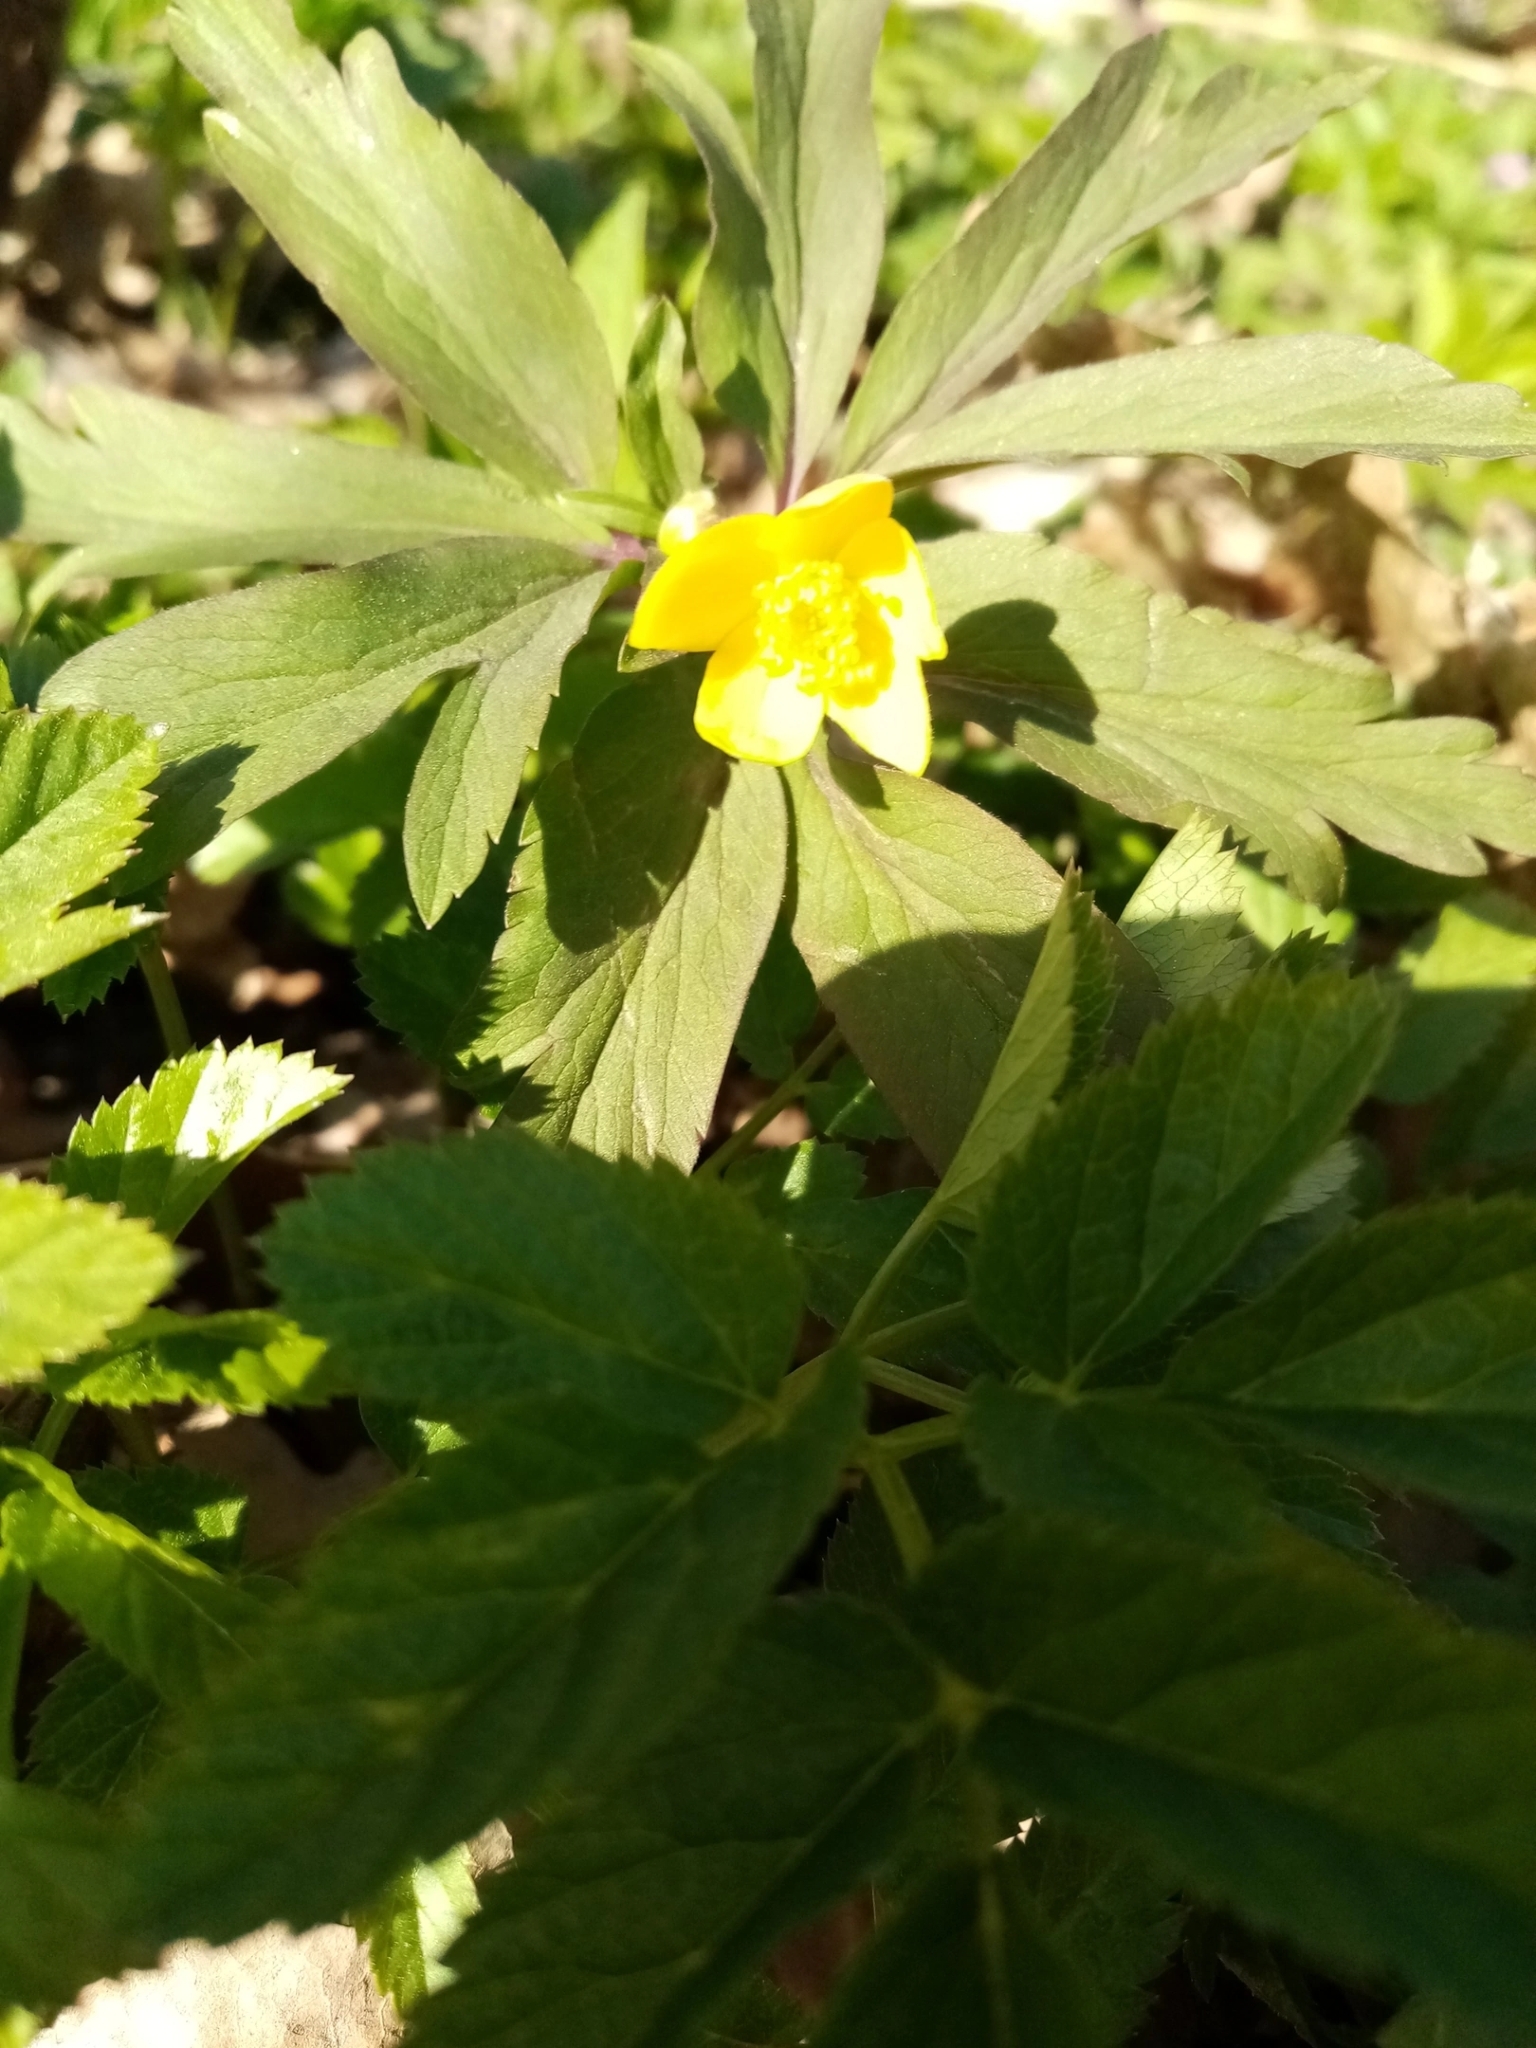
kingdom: Plantae
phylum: Tracheophyta
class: Magnoliopsida
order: Ranunculales
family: Ranunculaceae
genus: Anemone
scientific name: Anemone ranunculoides
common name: Yellow anemone
